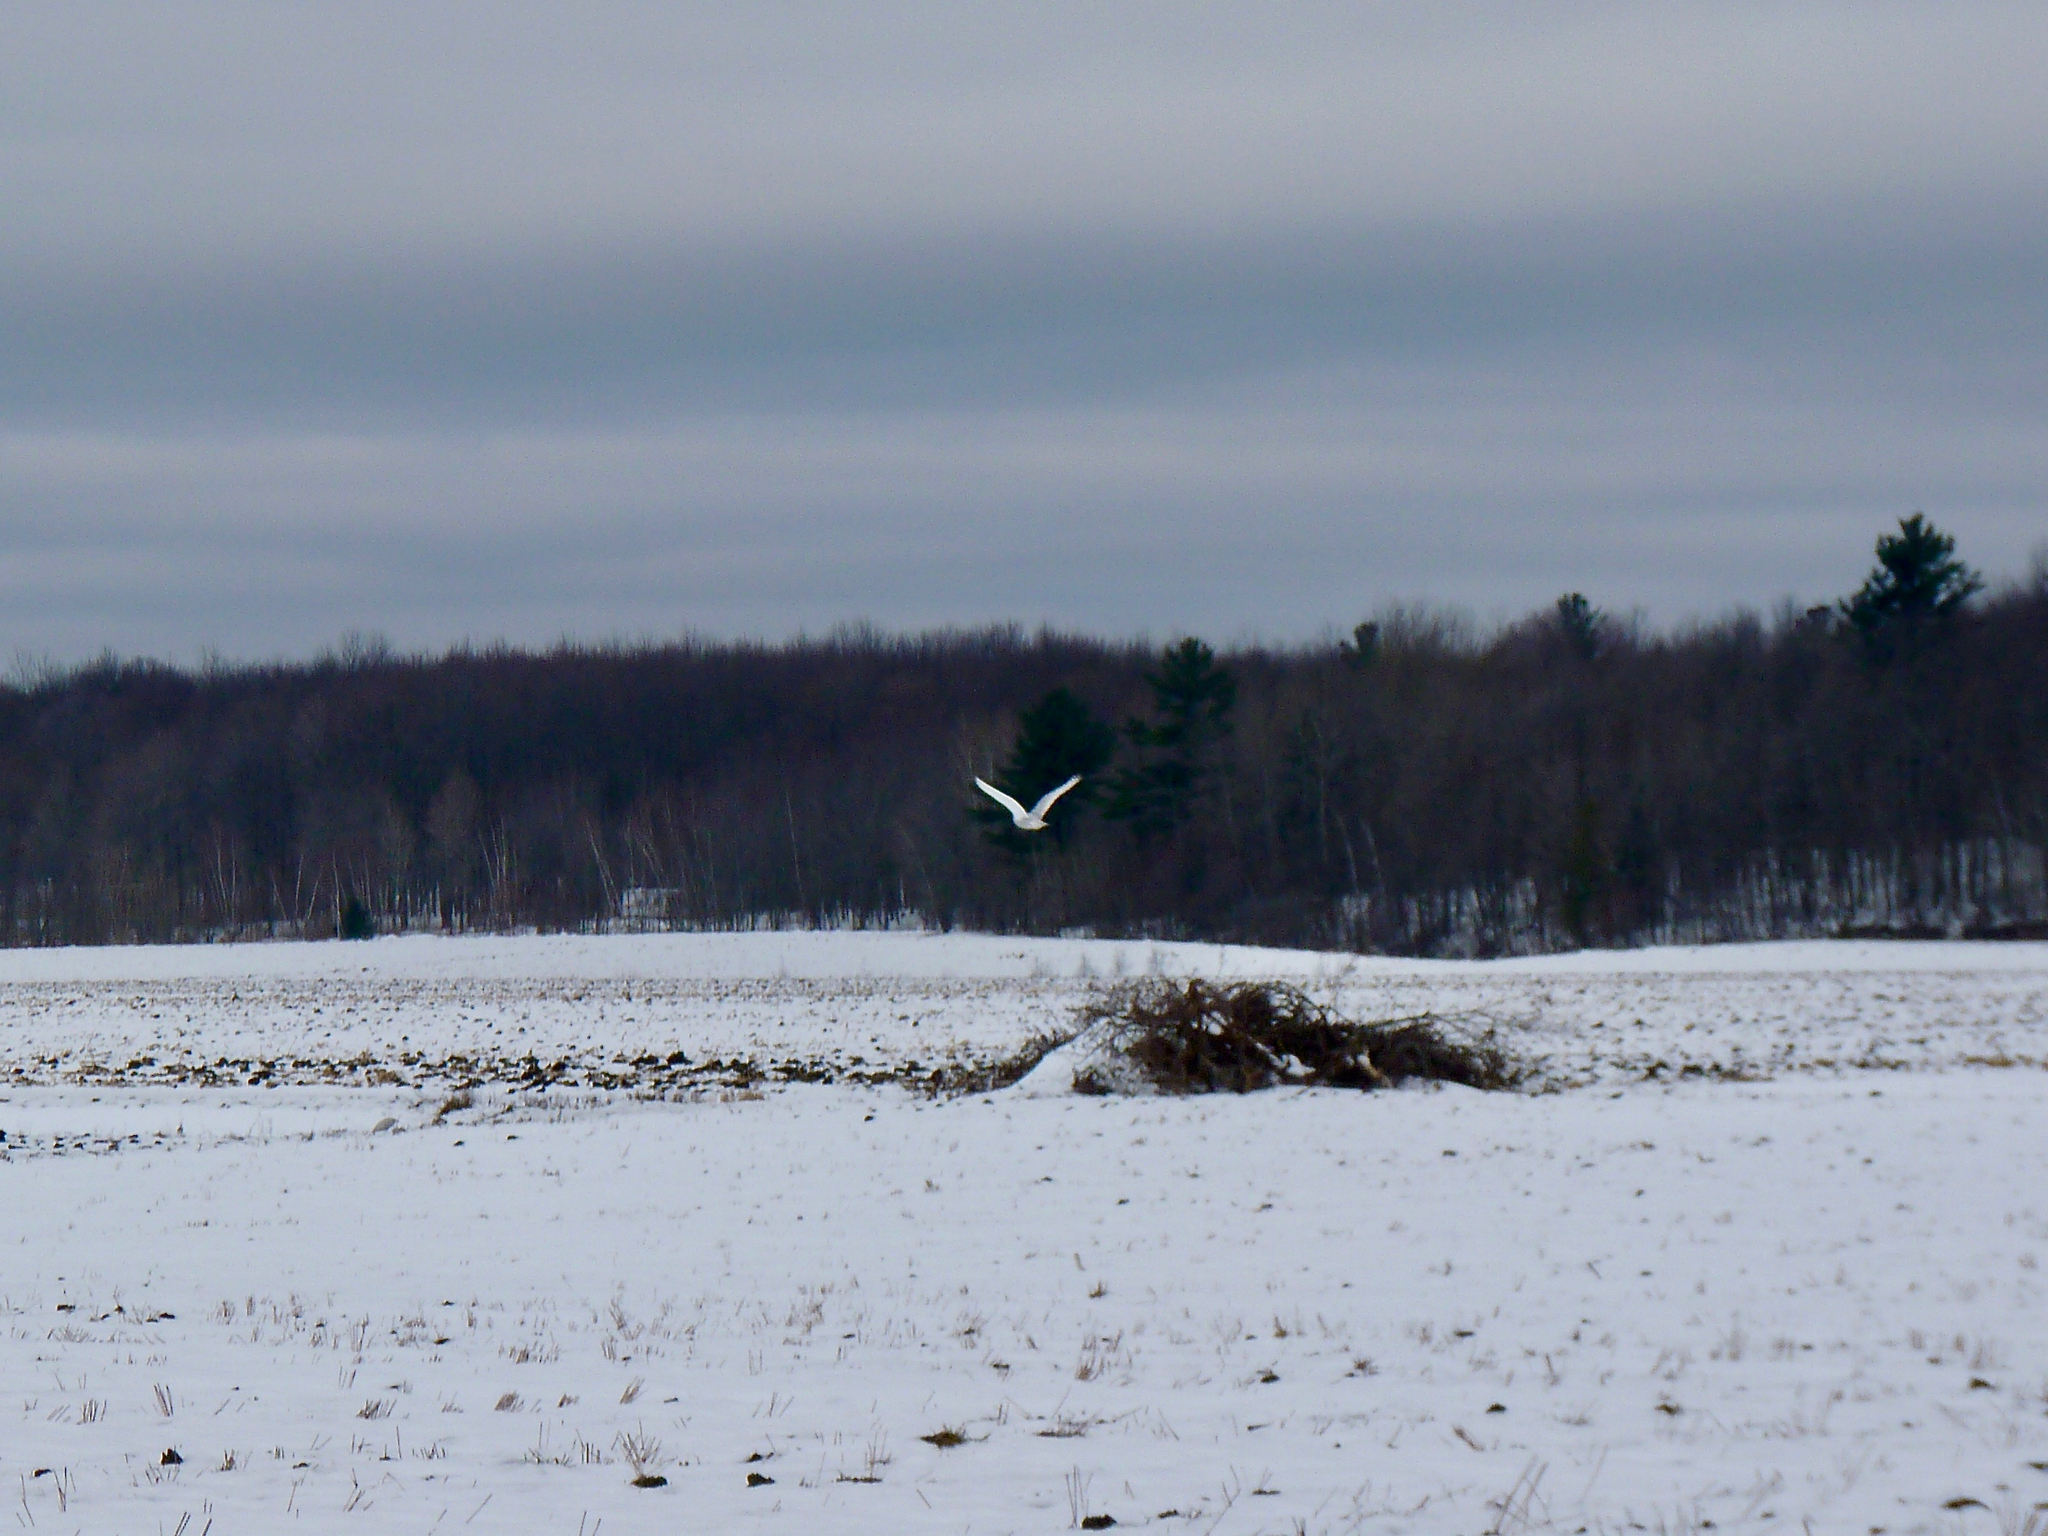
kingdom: Animalia
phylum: Chordata
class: Aves
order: Strigiformes
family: Strigidae
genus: Bubo
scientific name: Bubo scandiacus
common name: Snowy owl
